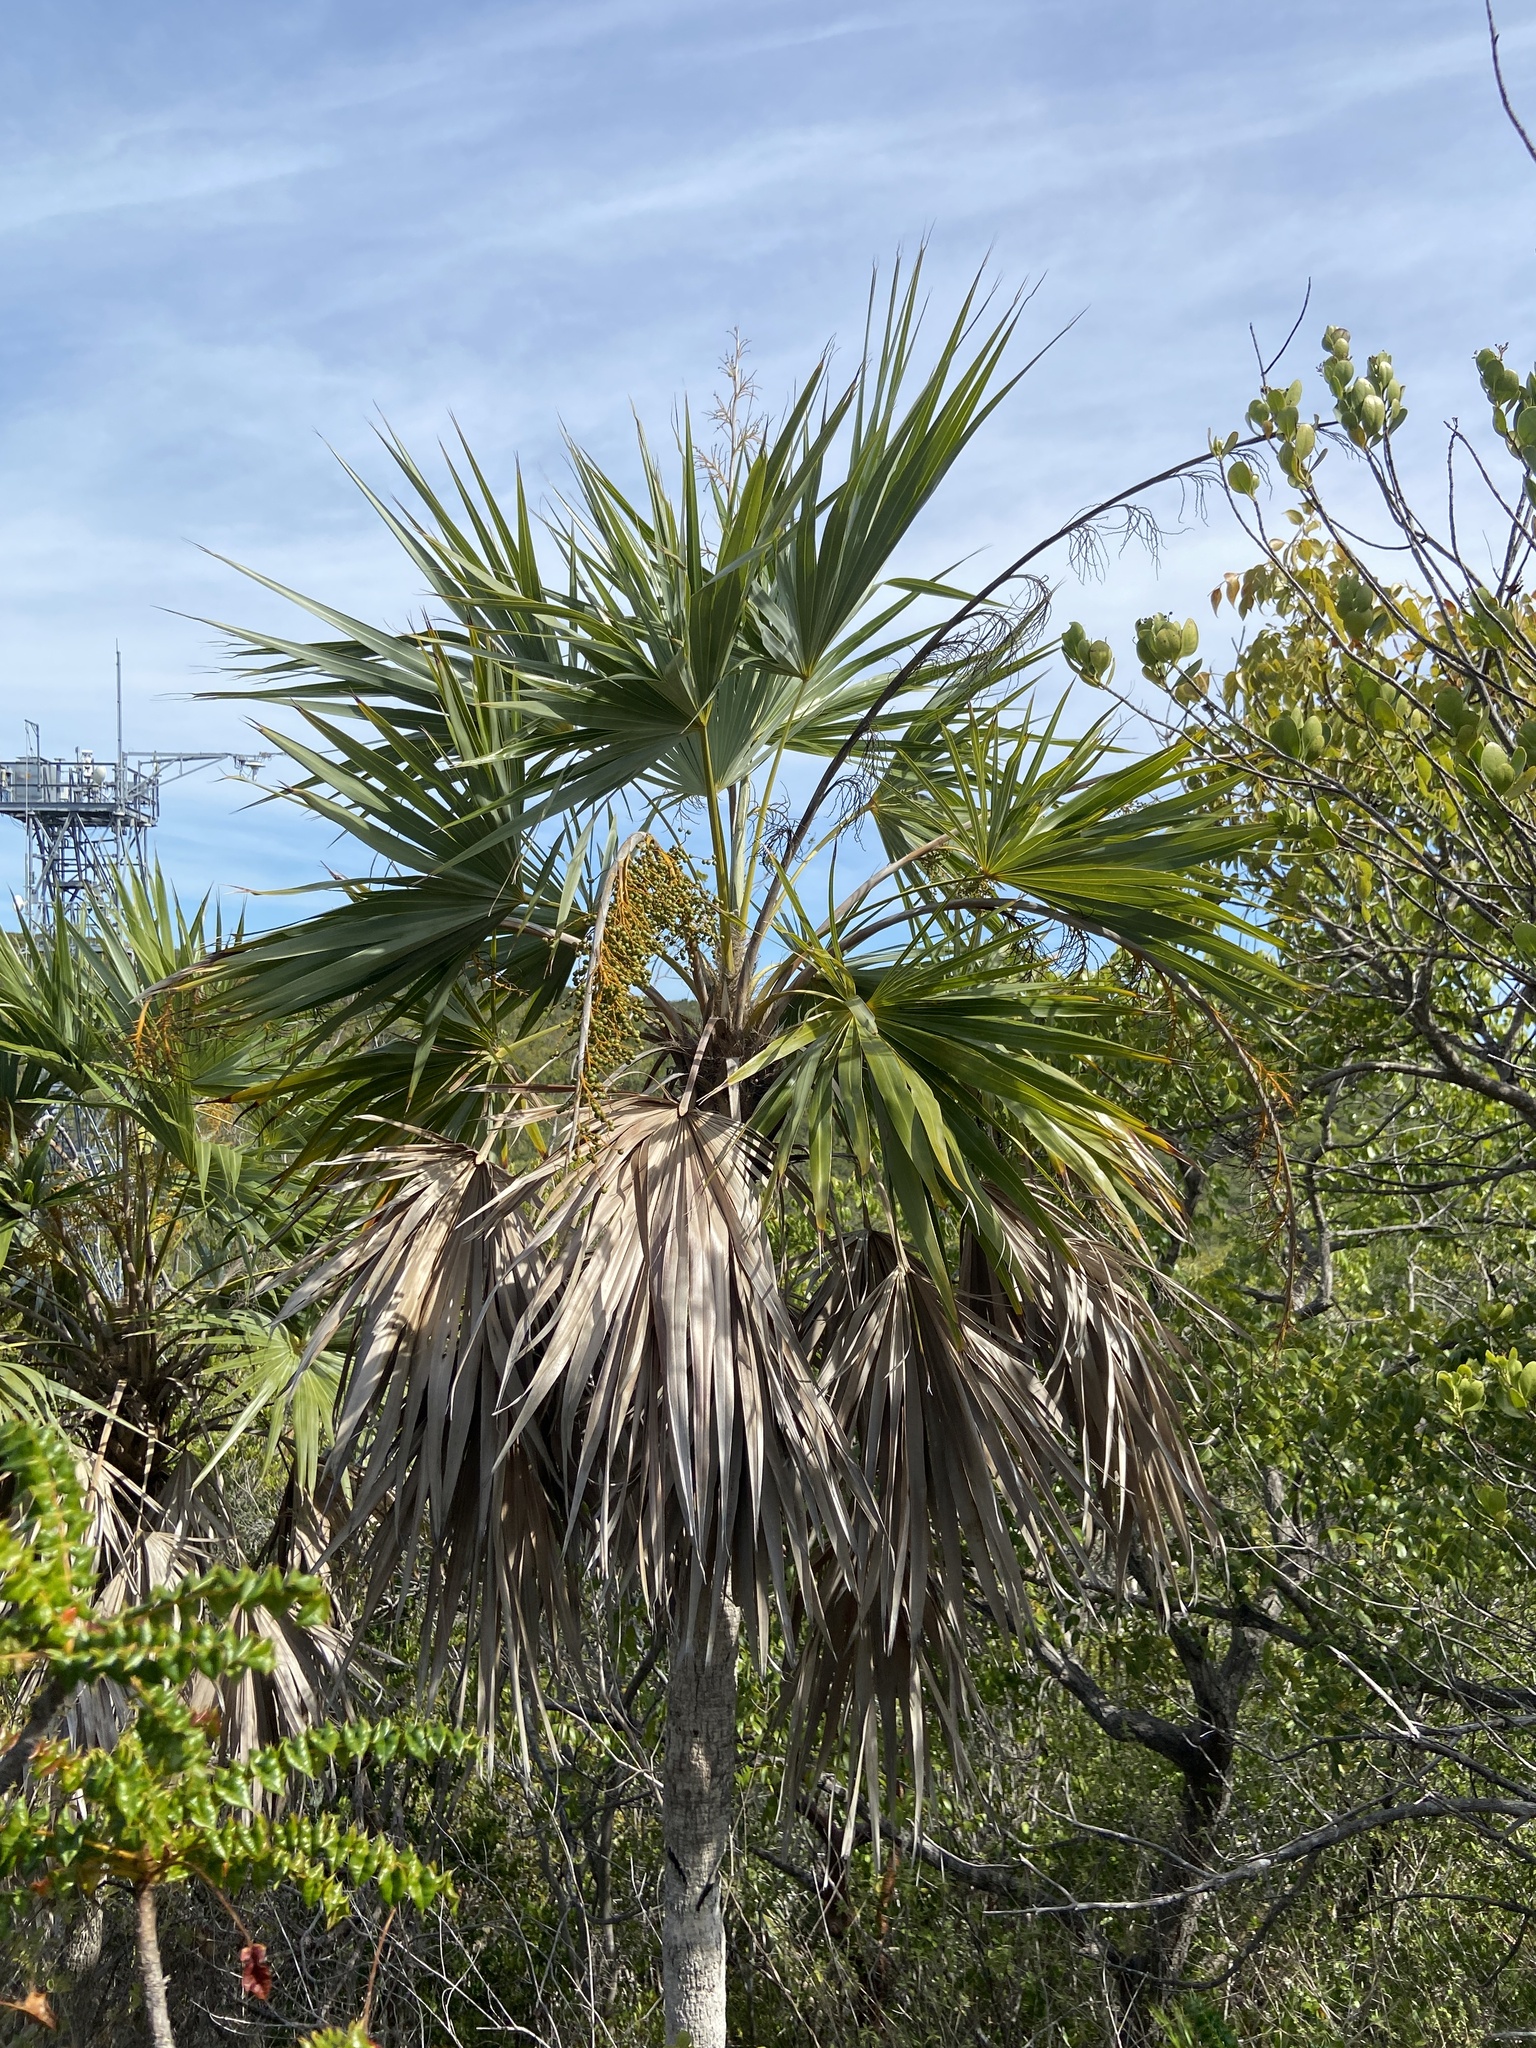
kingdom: Plantae
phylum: Tracheophyta
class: Liliopsida
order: Arecales
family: Arecaceae
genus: Leucothrinax
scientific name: Leucothrinax morrisii
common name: Key palm
